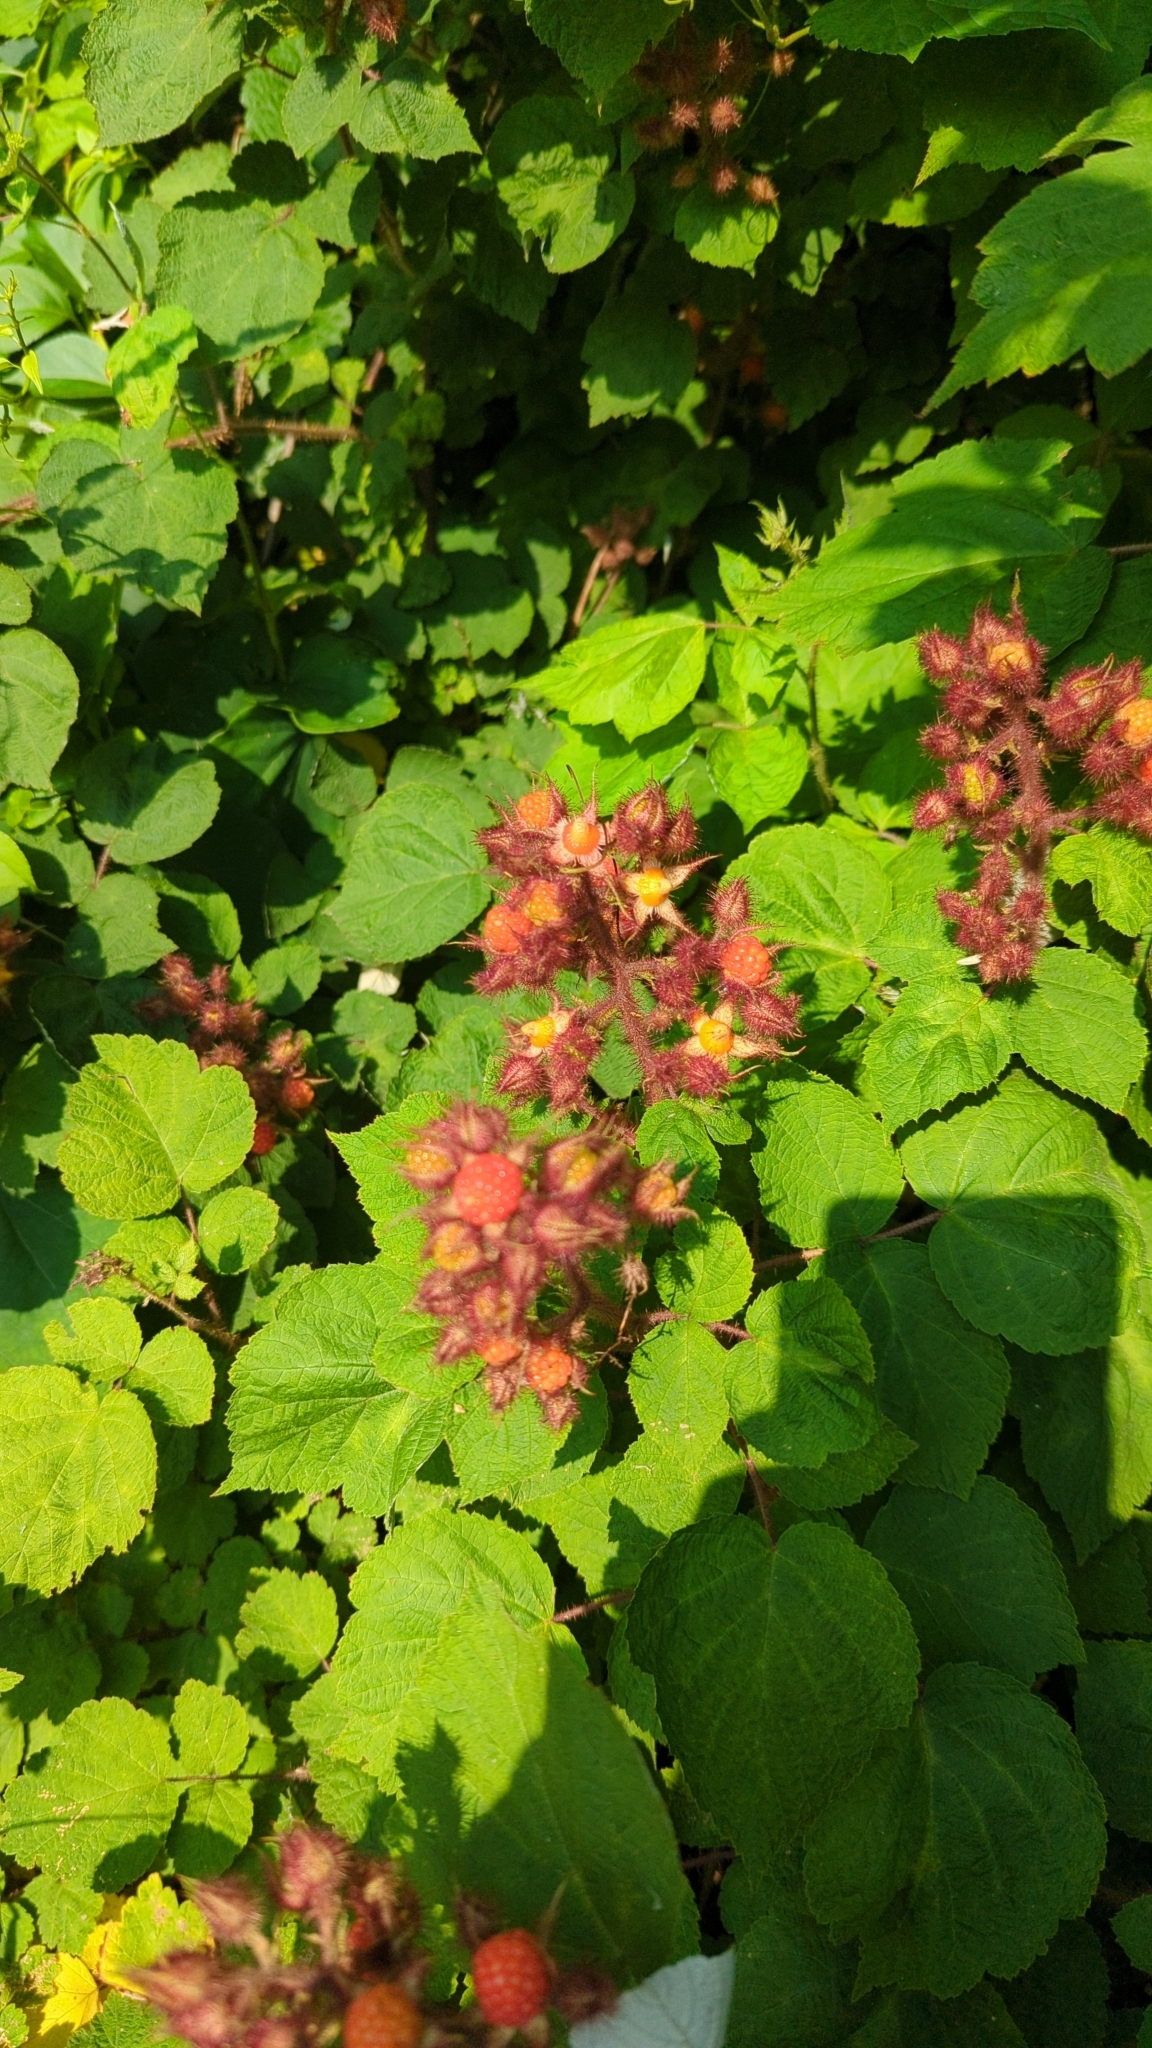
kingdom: Plantae
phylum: Tracheophyta
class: Magnoliopsida
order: Rosales
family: Rosaceae
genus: Rubus
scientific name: Rubus phoenicolasius
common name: Japanese wineberry
